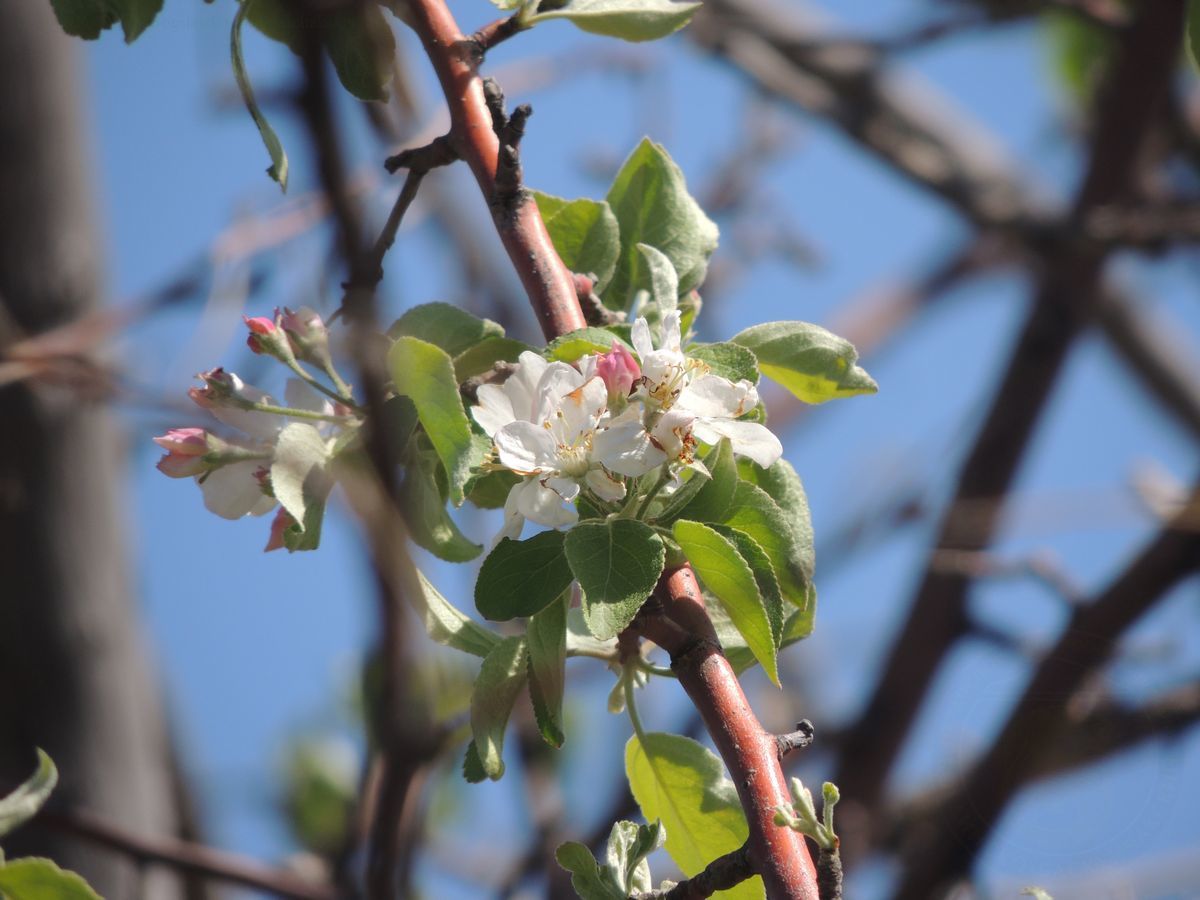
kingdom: Plantae
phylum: Tracheophyta
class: Magnoliopsida
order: Rosales
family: Rosaceae
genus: Malus
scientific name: Malus domestica
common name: Apple
